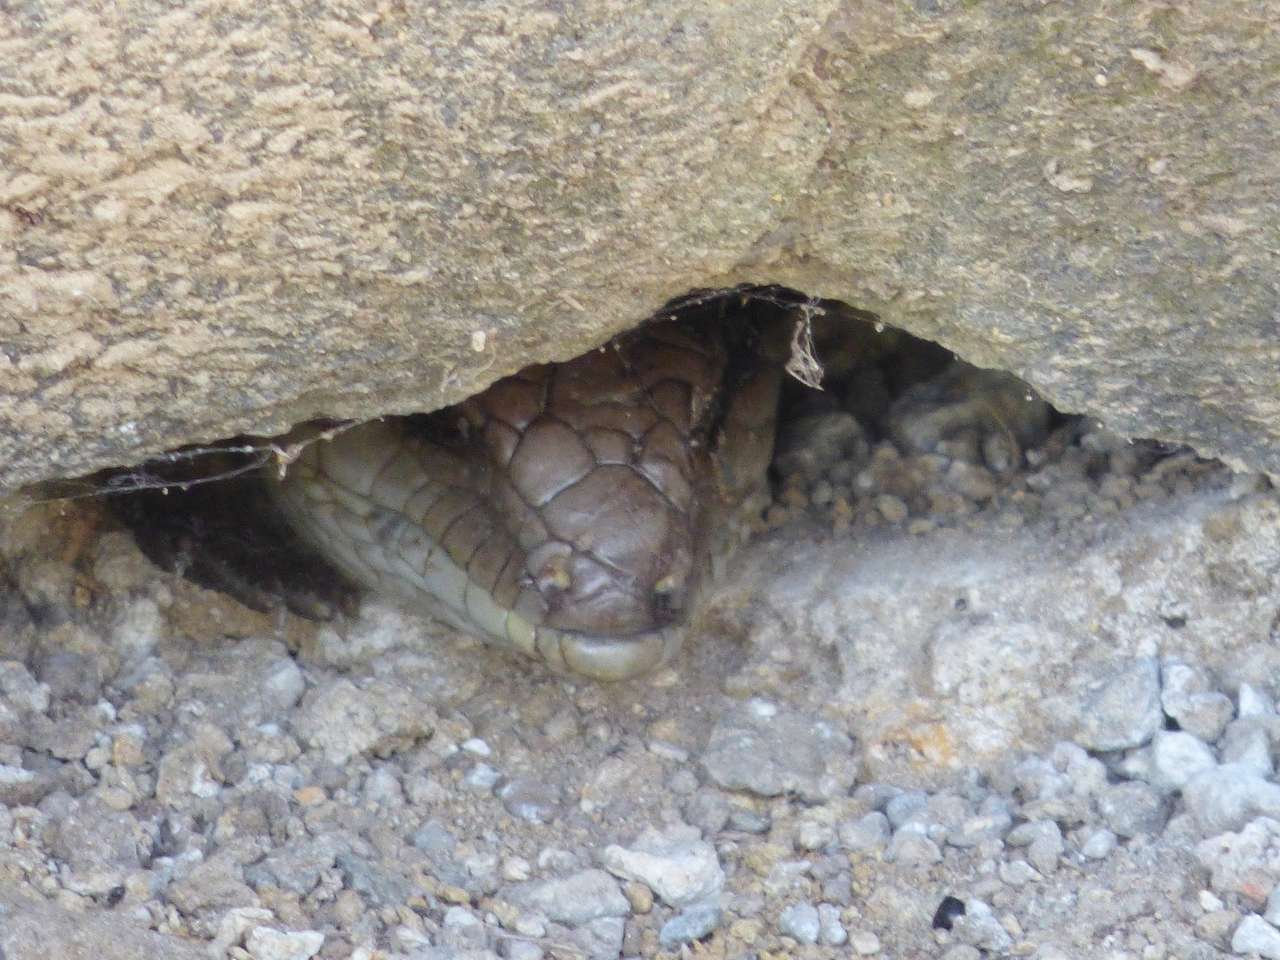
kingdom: Animalia
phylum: Chordata
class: Squamata
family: Scincidae
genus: Tiliqua
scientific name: Tiliqua scincoides
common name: Common bluetongue
